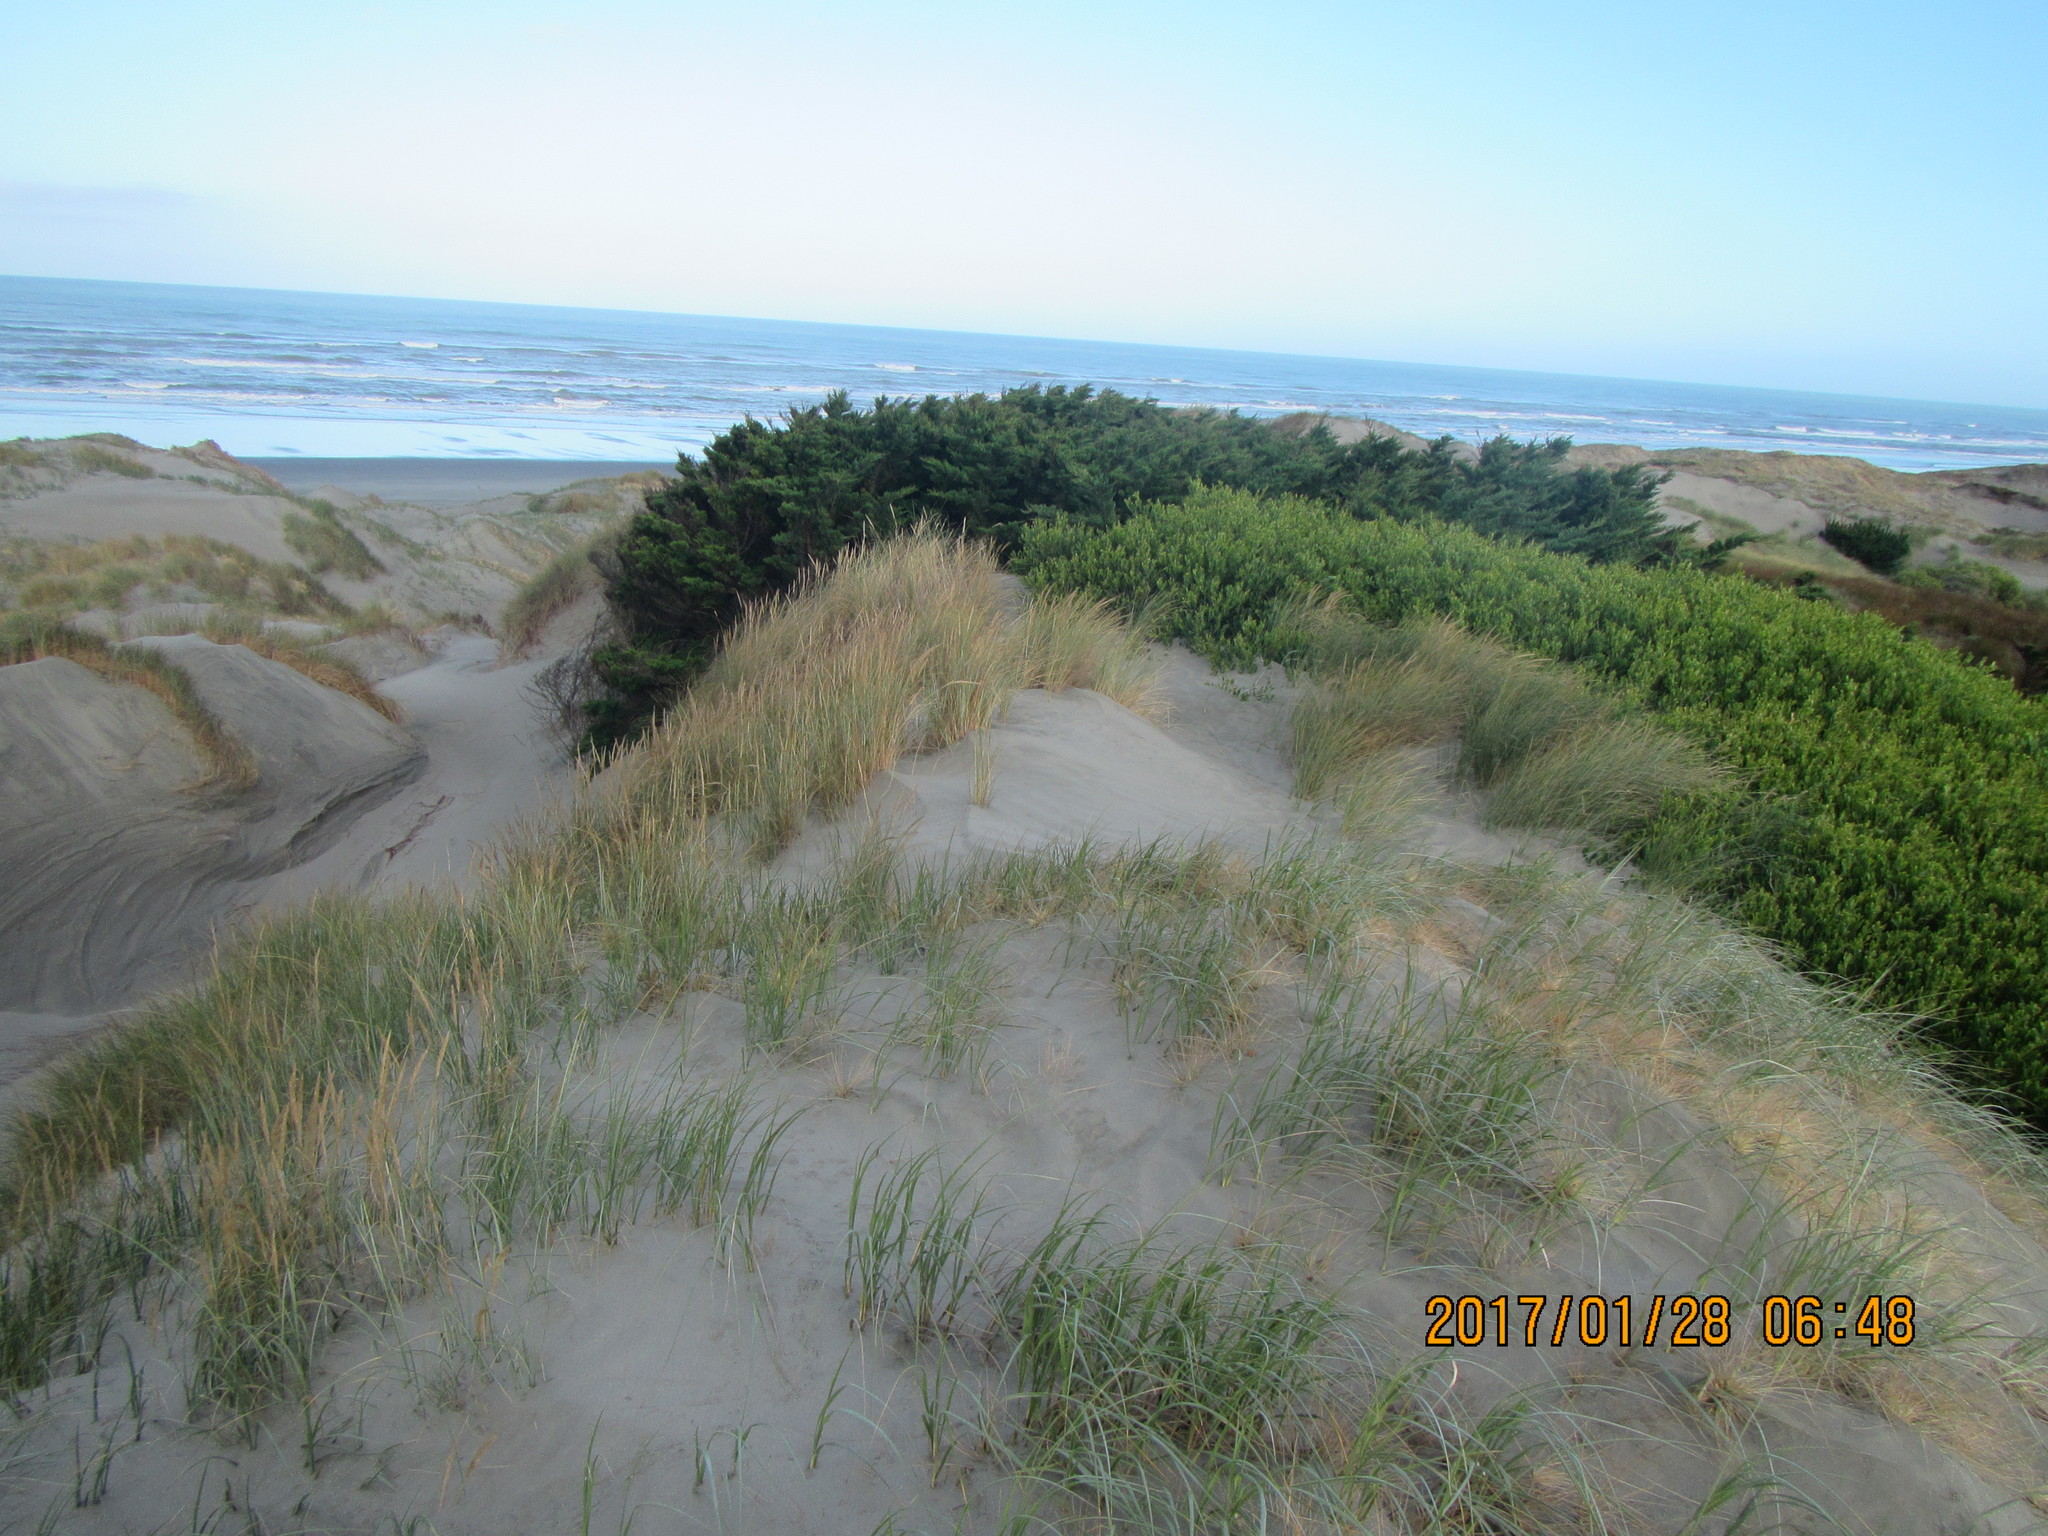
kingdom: Plantae
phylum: Tracheophyta
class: Magnoliopsida
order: Fabales
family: Fabaceae
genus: Acacia
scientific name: Acacia longifolia
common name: Sydney golden wattle
